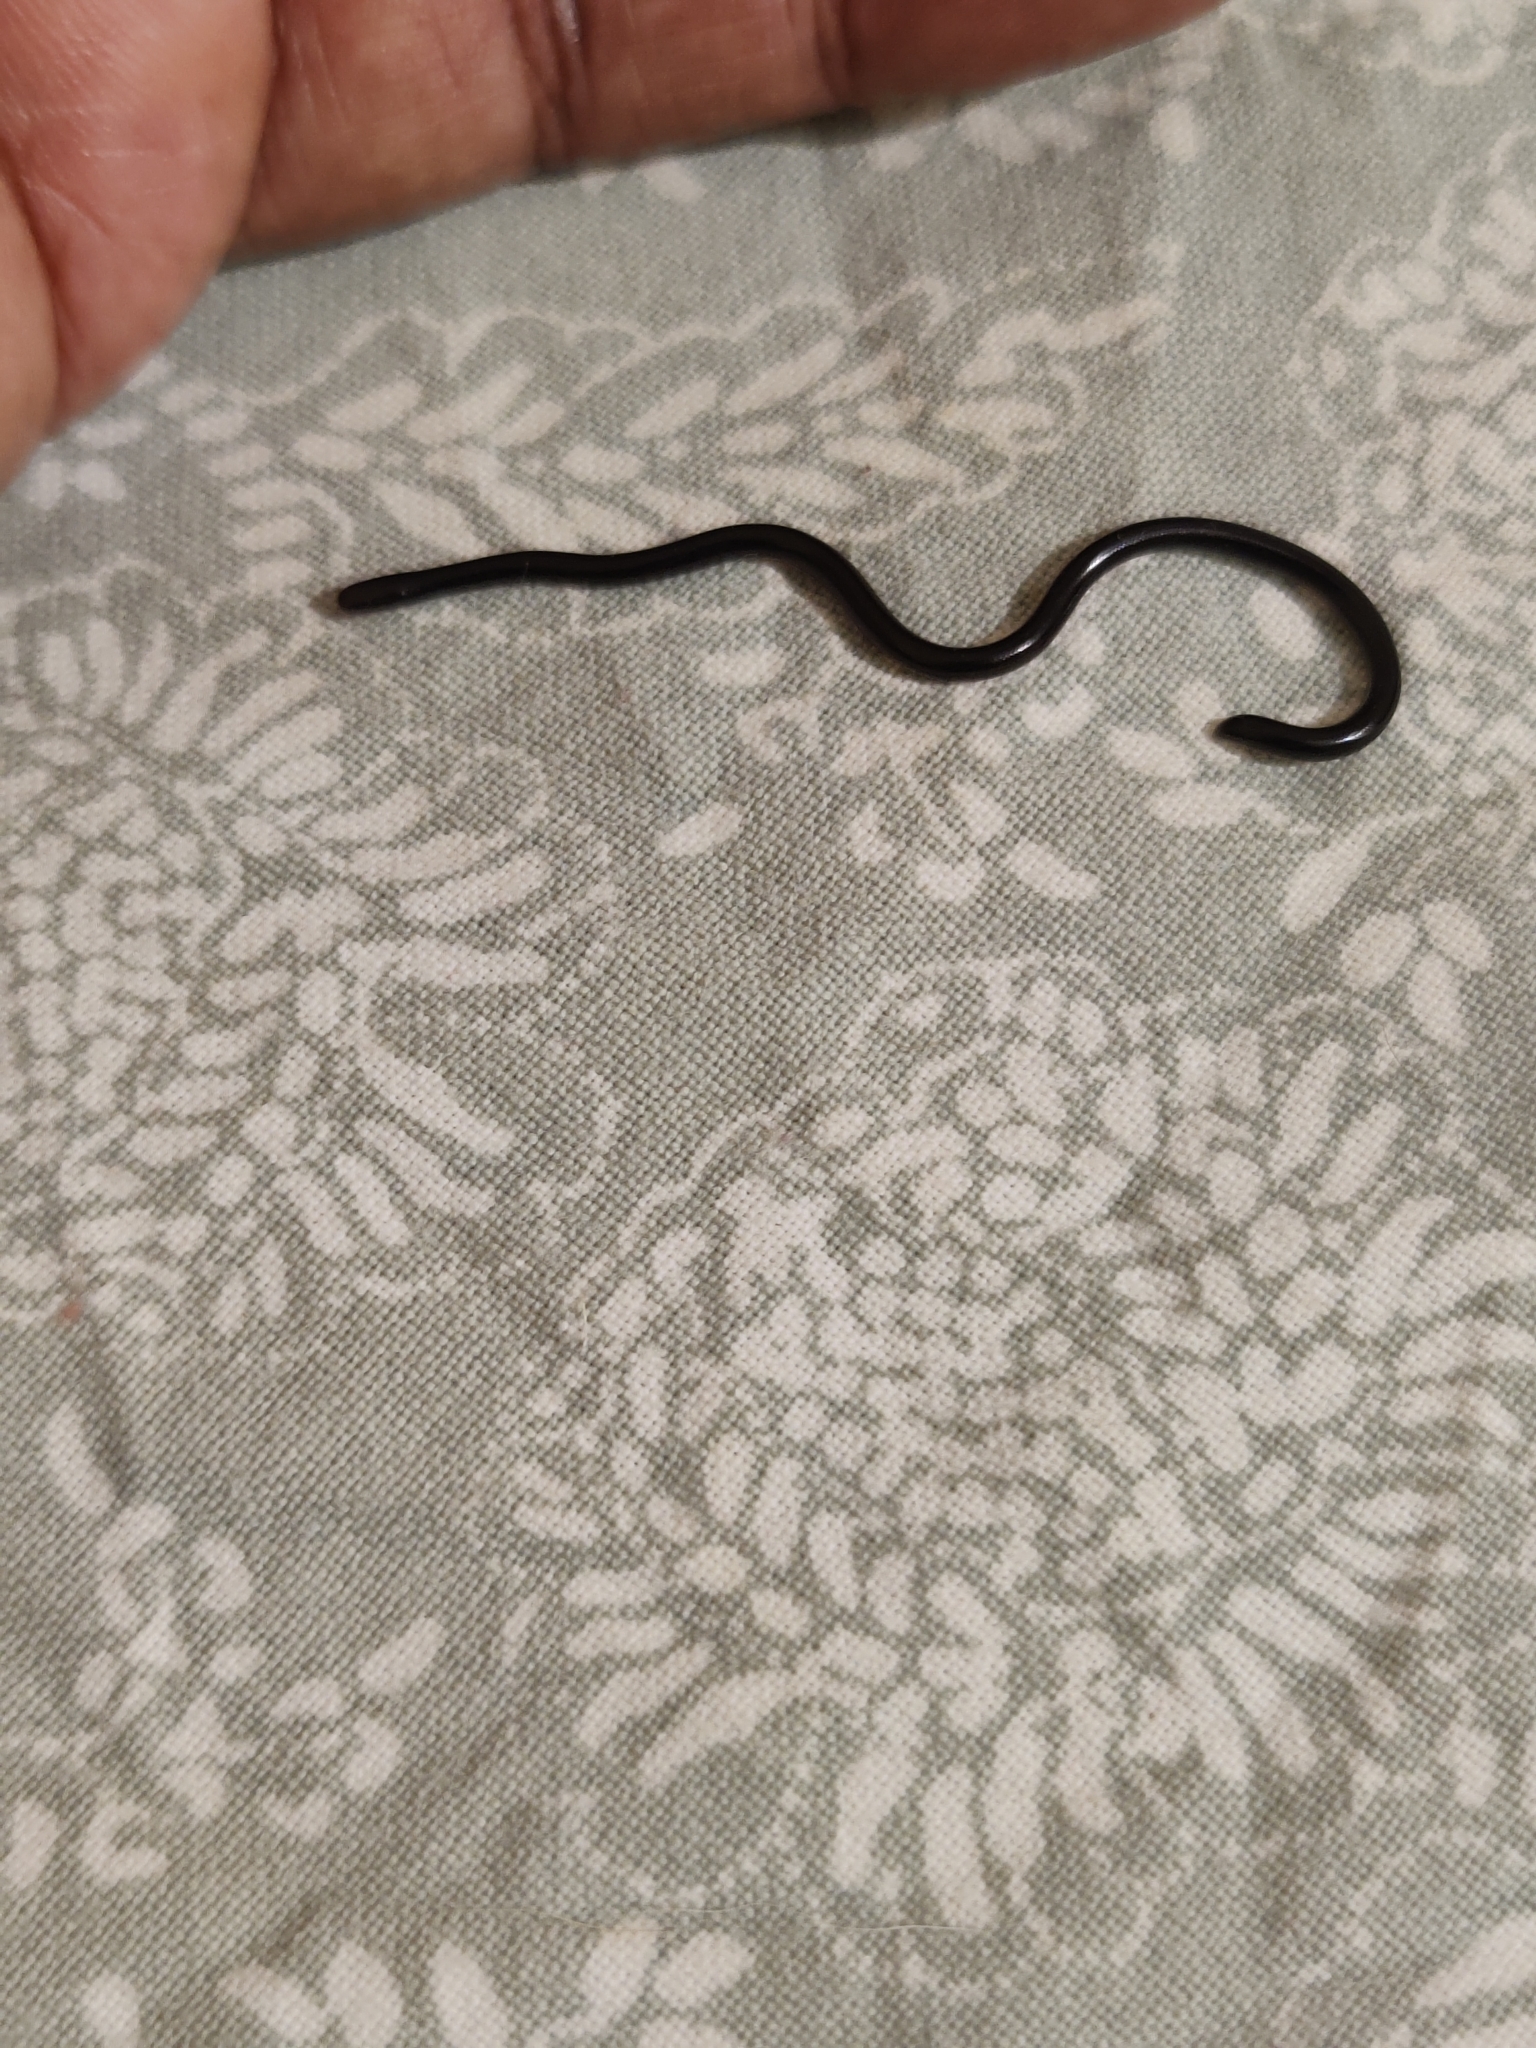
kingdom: Animalia
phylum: Chordata
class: Squamata
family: Typhlopidae
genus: Indotyphlops
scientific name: Indotyphlops braminus
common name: Brahminy blindsnake
